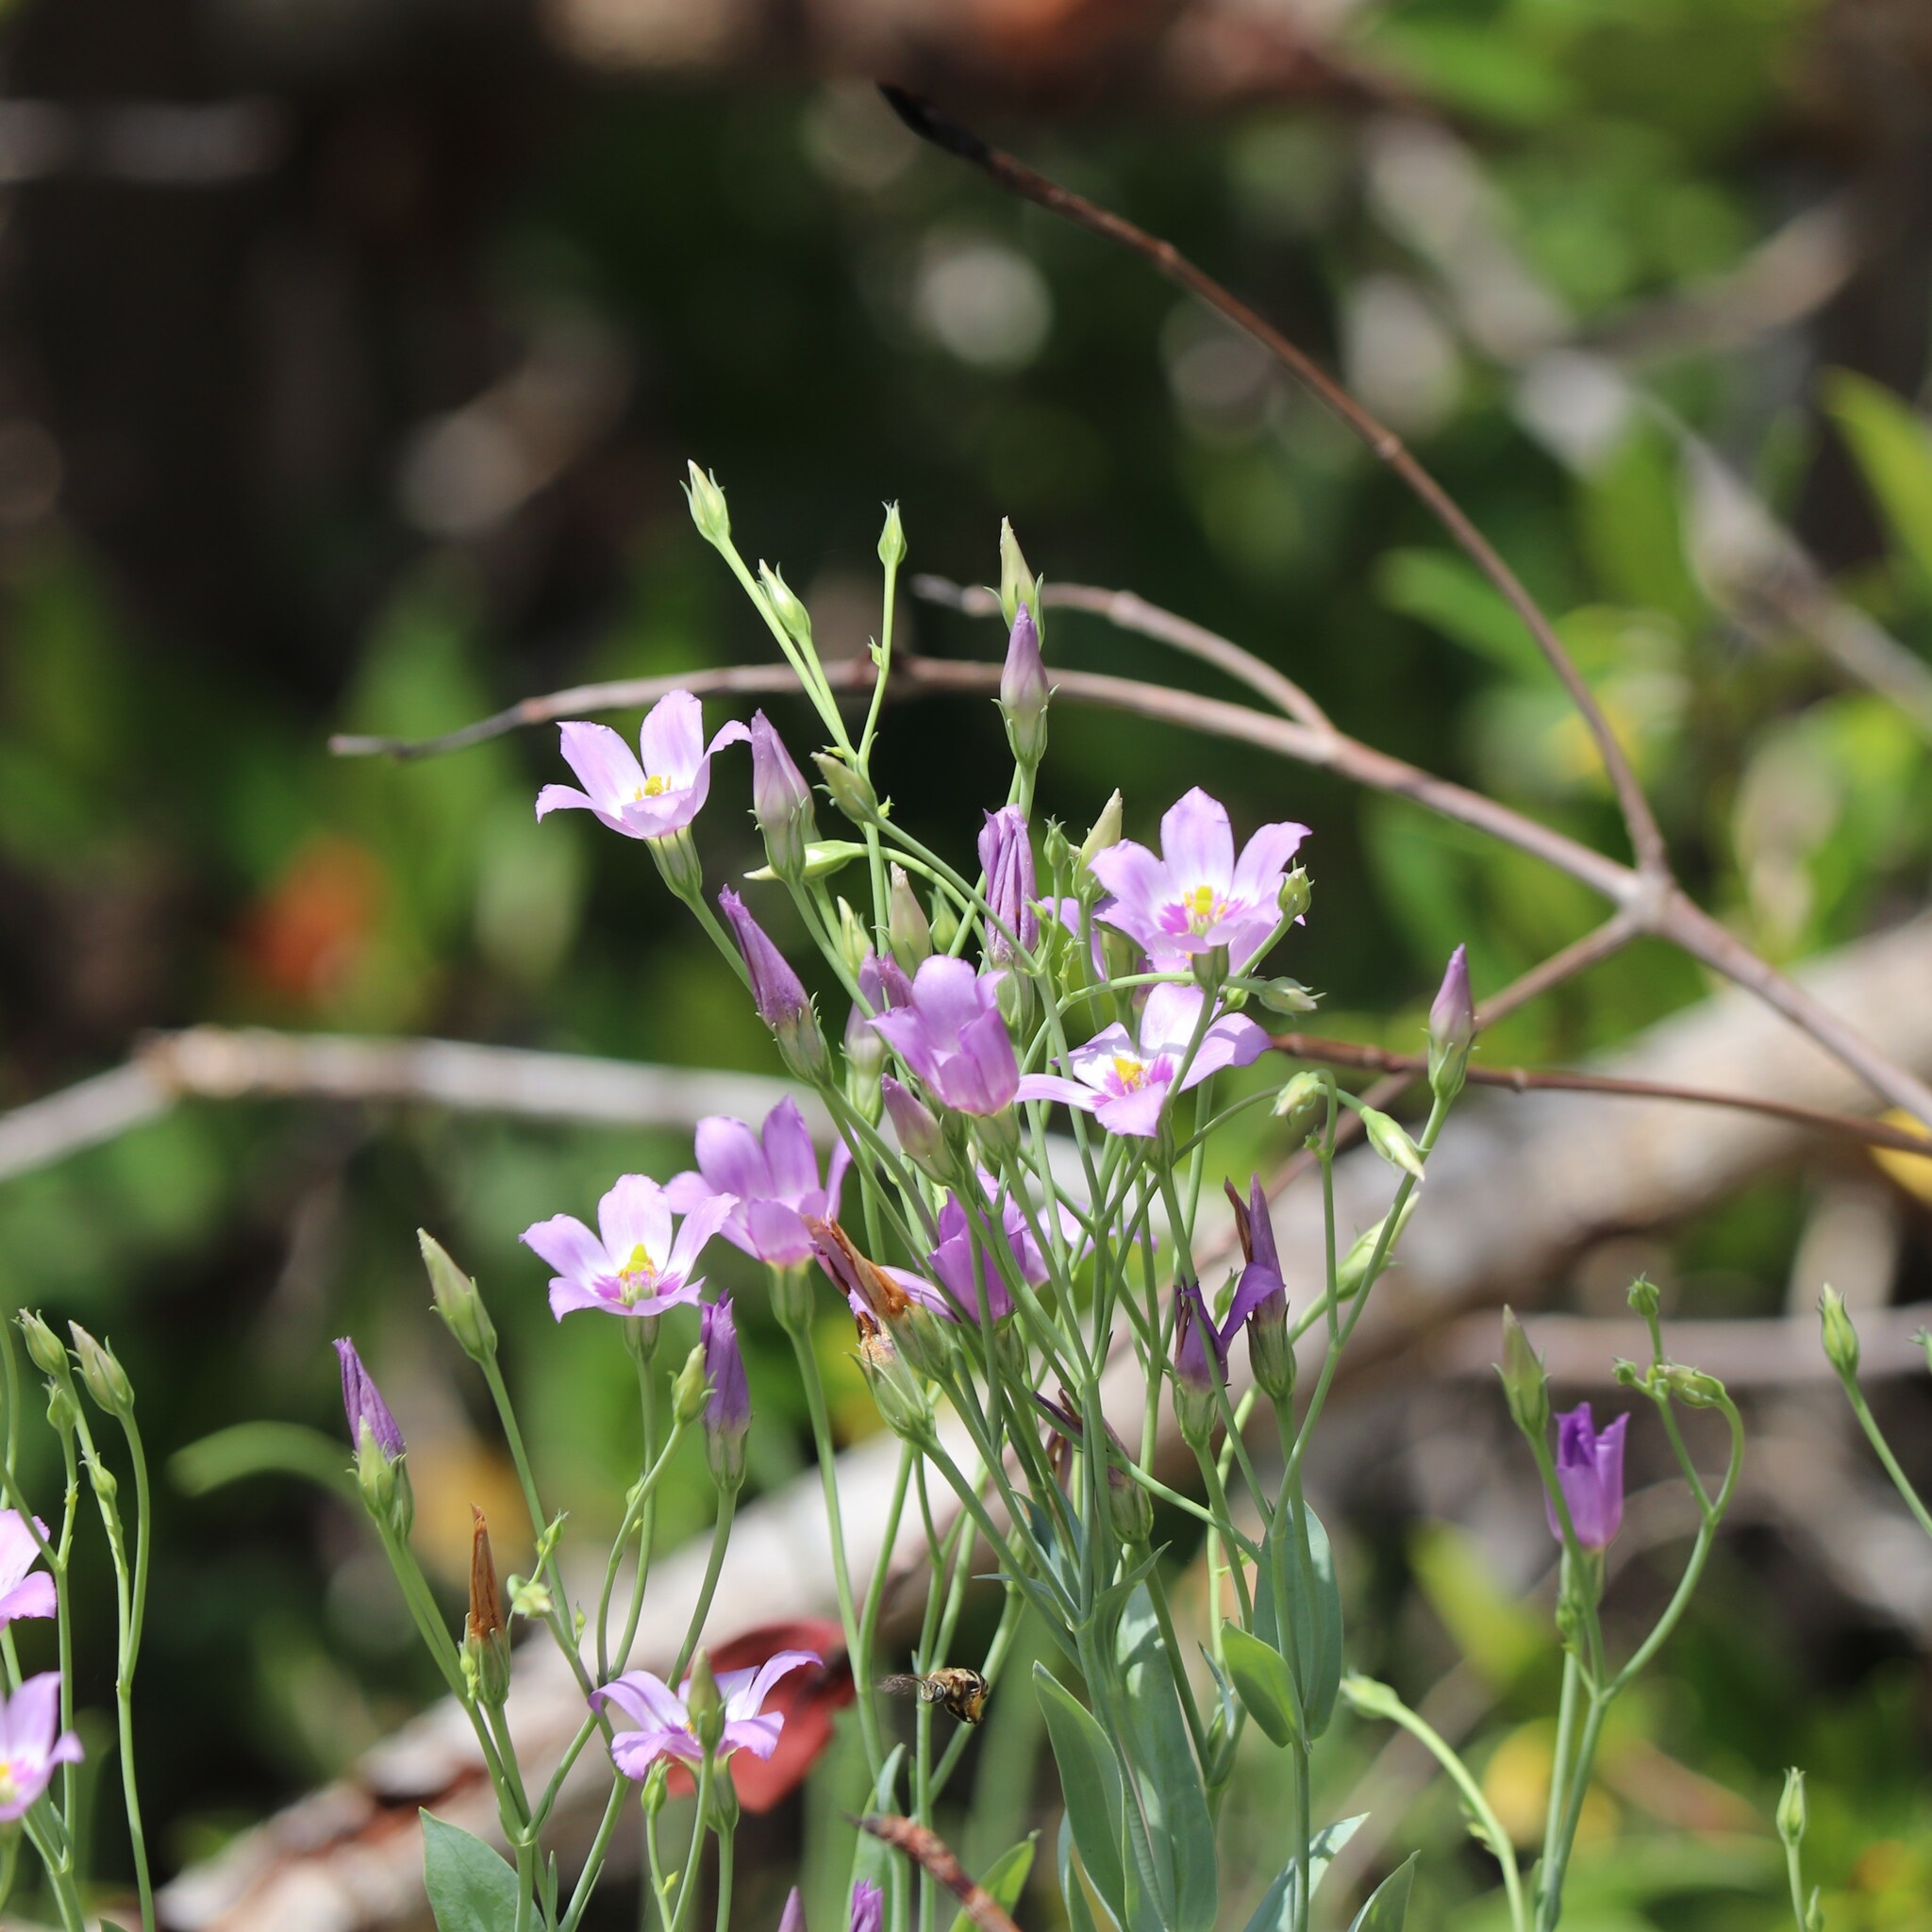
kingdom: Plantae
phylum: Tracheophyta
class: Magnoliopsida
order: Gentianales
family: Gentianaceae
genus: Eustoma
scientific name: Eustoma exaltatum
